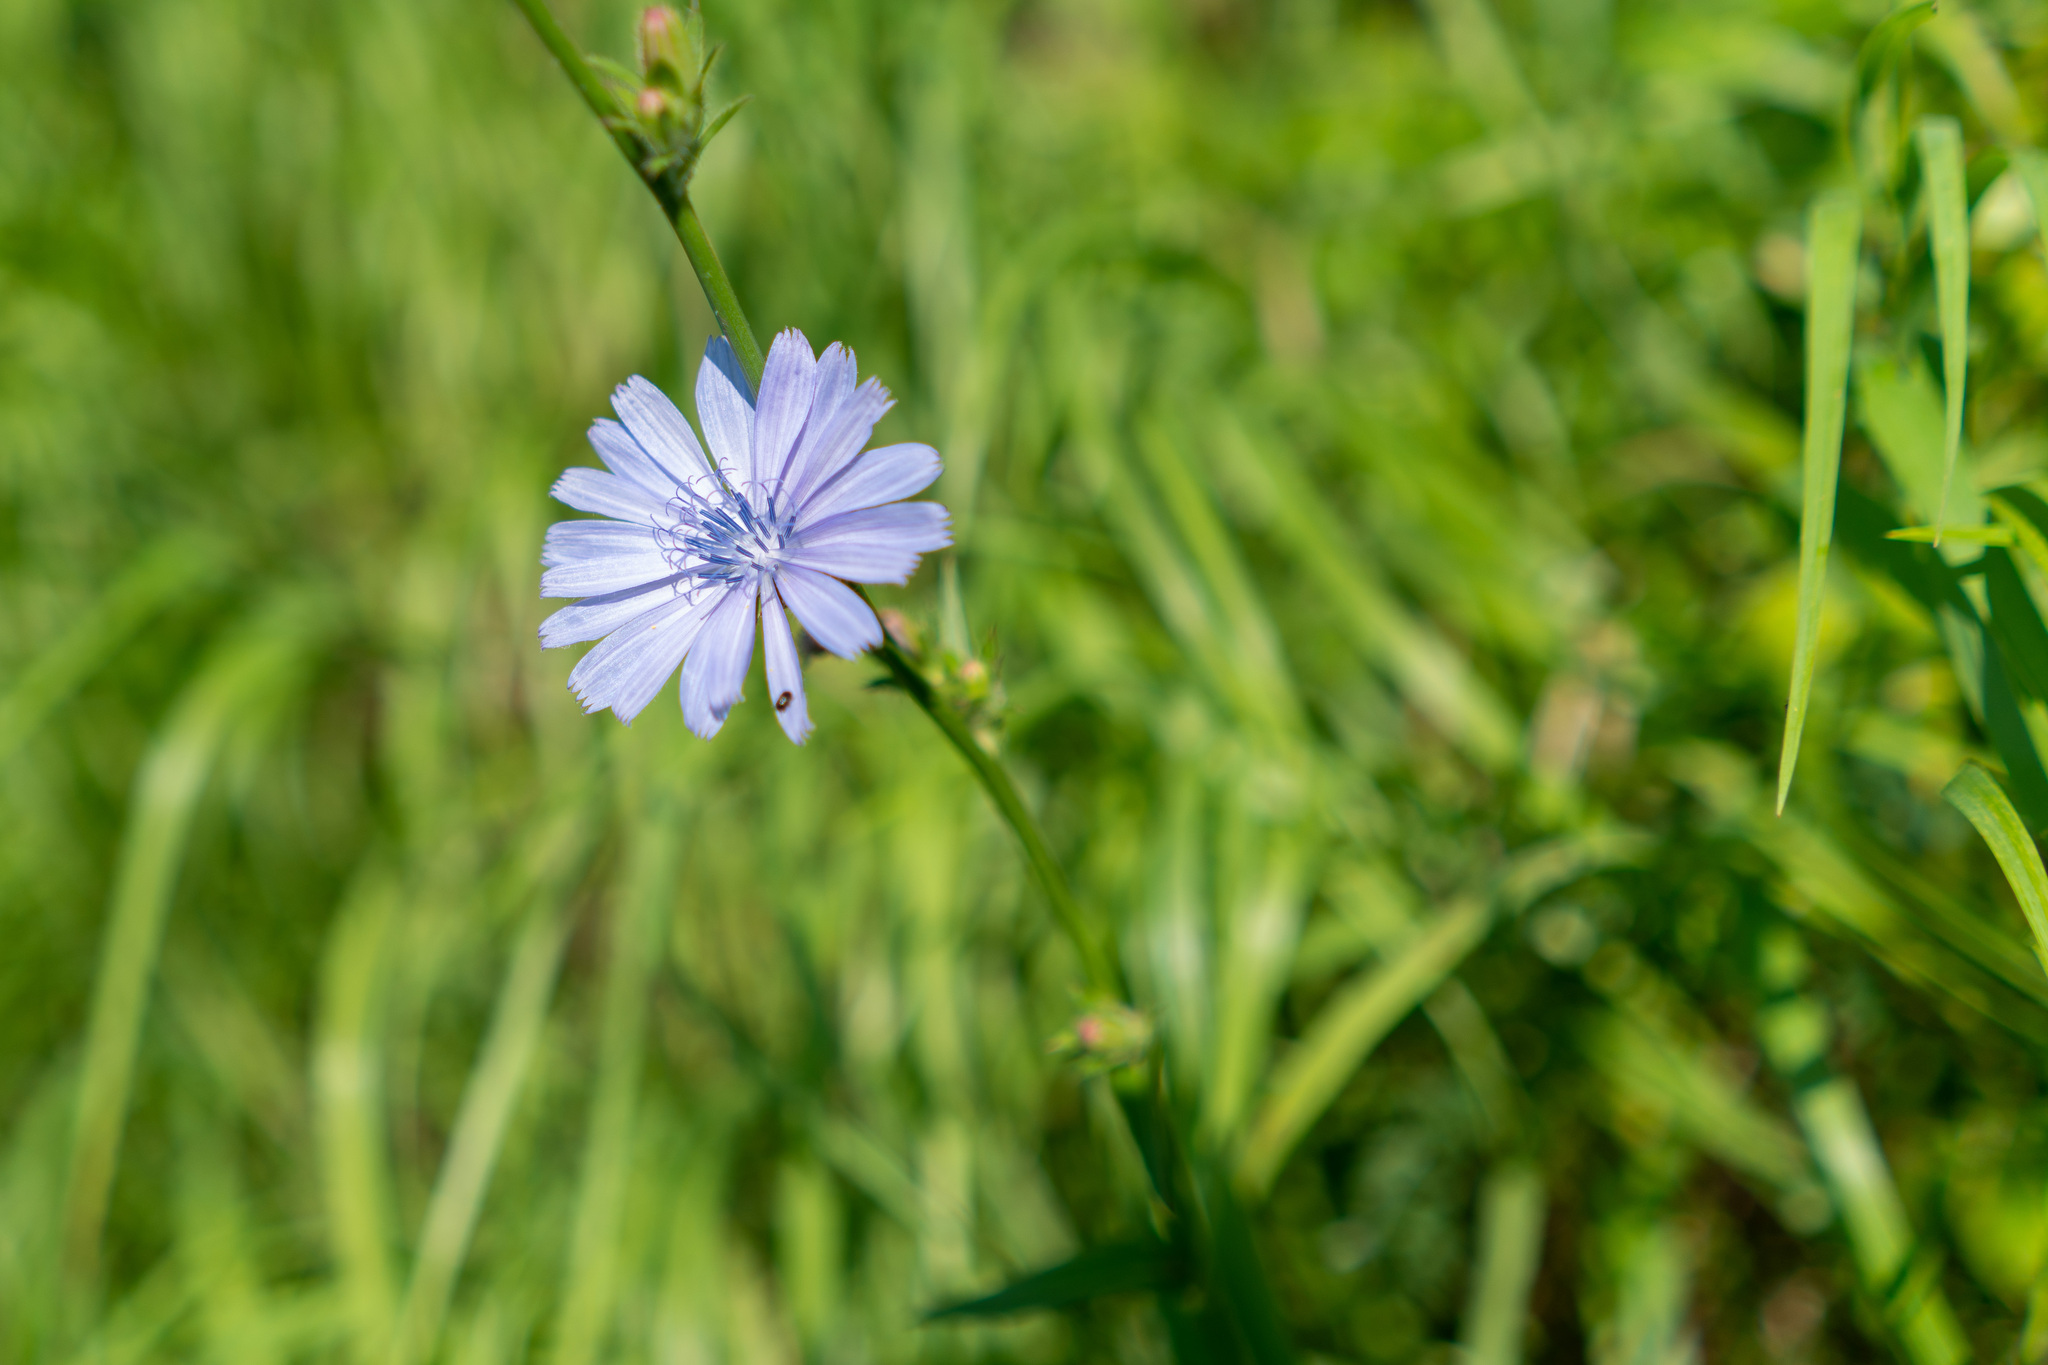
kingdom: Plantae
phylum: Tracheophyta
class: Magnoliopsida
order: Asterales
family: Asteraceae
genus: Cichorium
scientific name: Cichorium intybus
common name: Chicory
